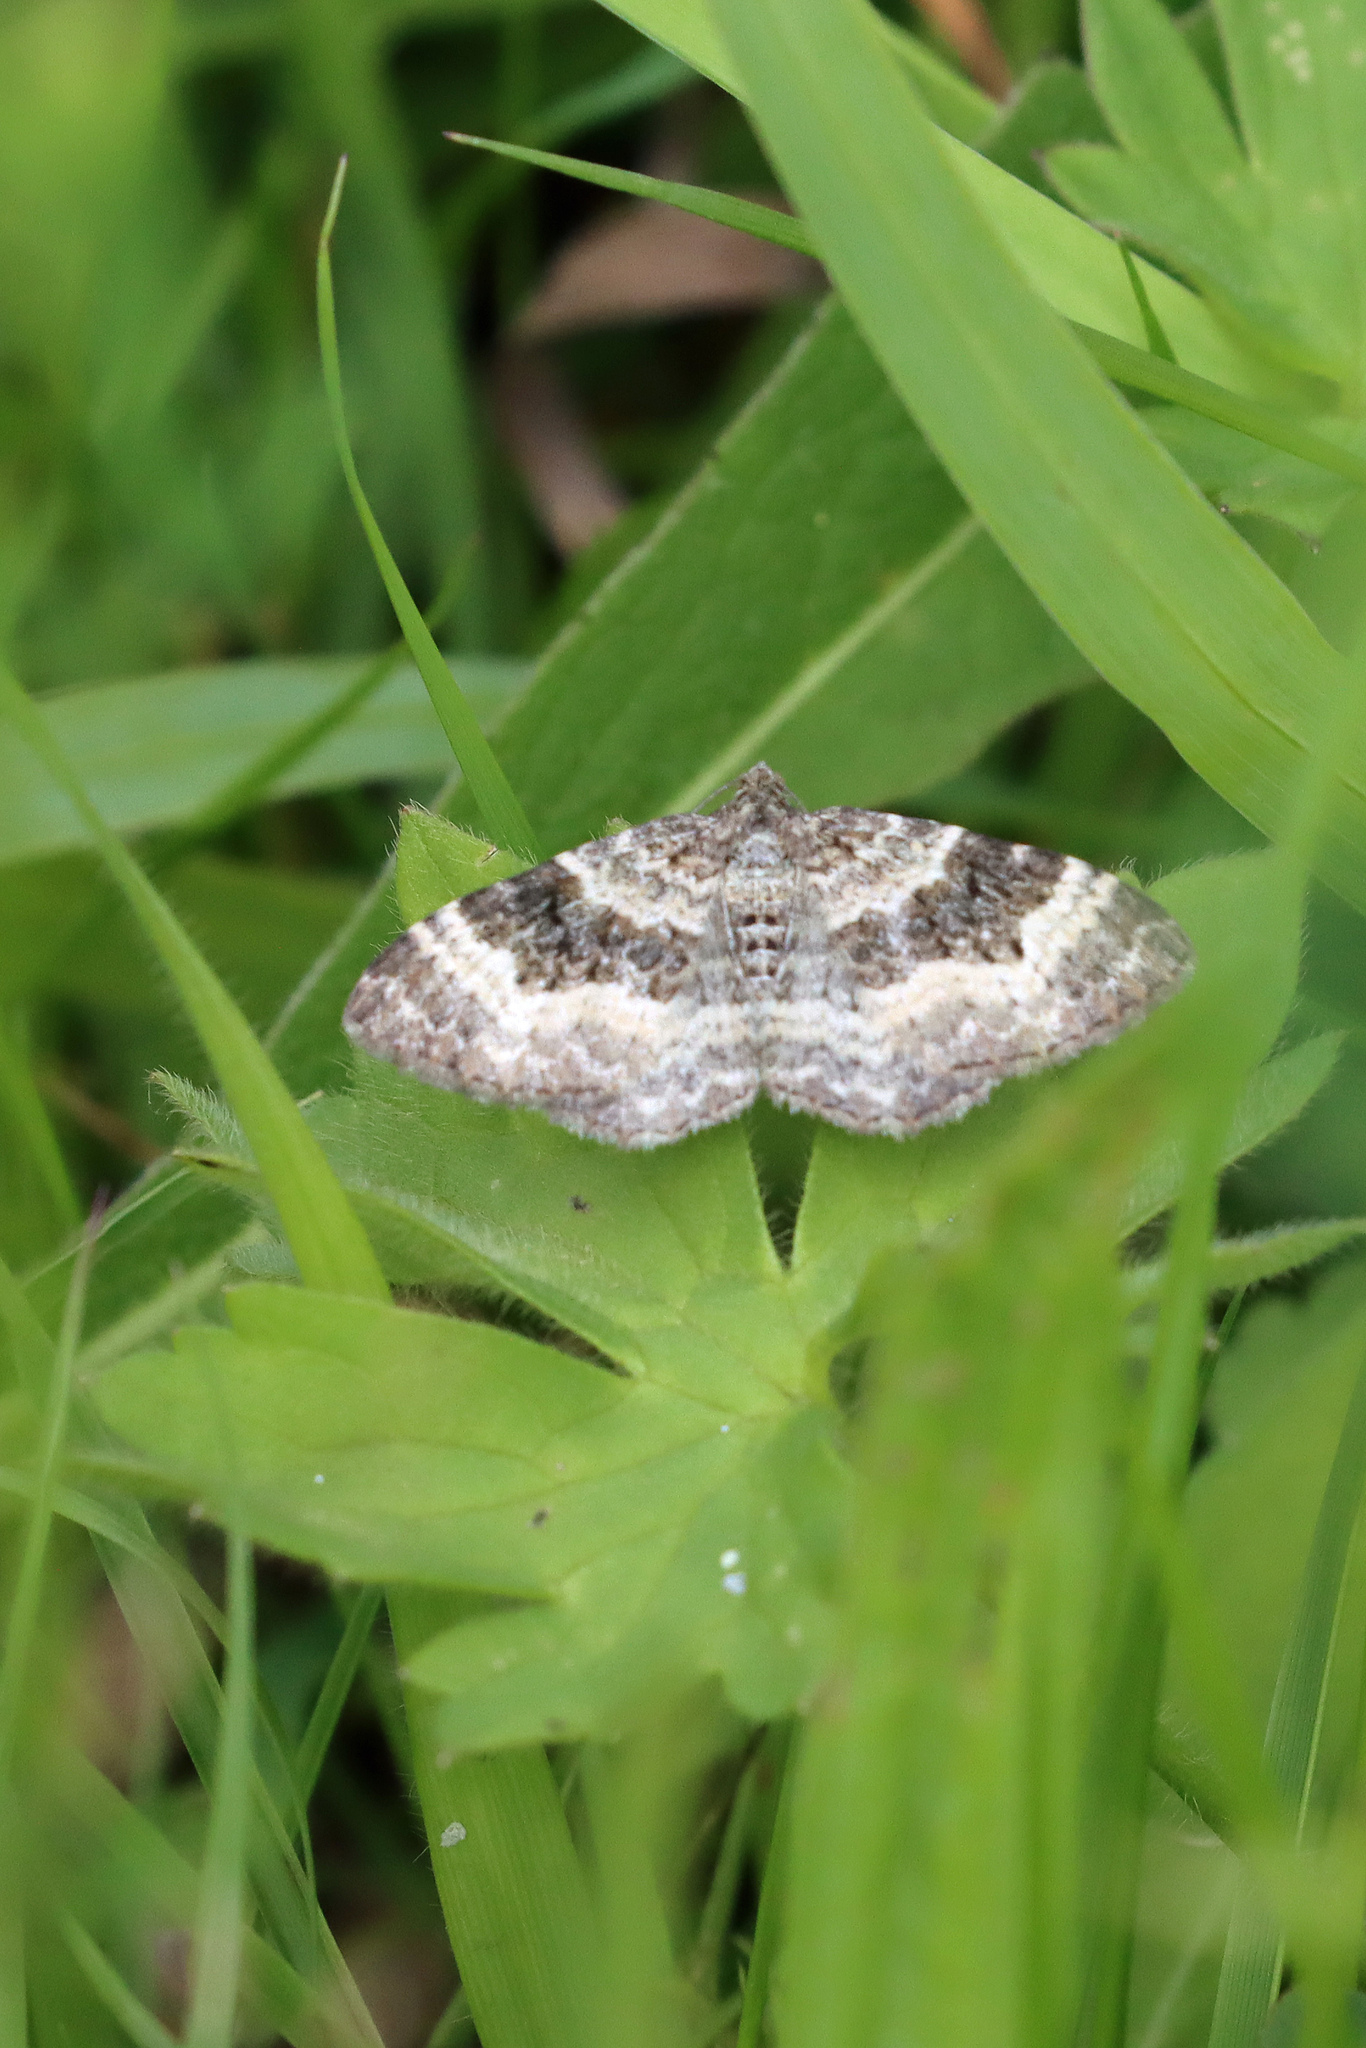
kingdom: Animalia
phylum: Arthropoda
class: Insecta
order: Lepidoptera
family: Geometridae
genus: Epirrhoe
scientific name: Epirrhoe alternata
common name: Common carpet
